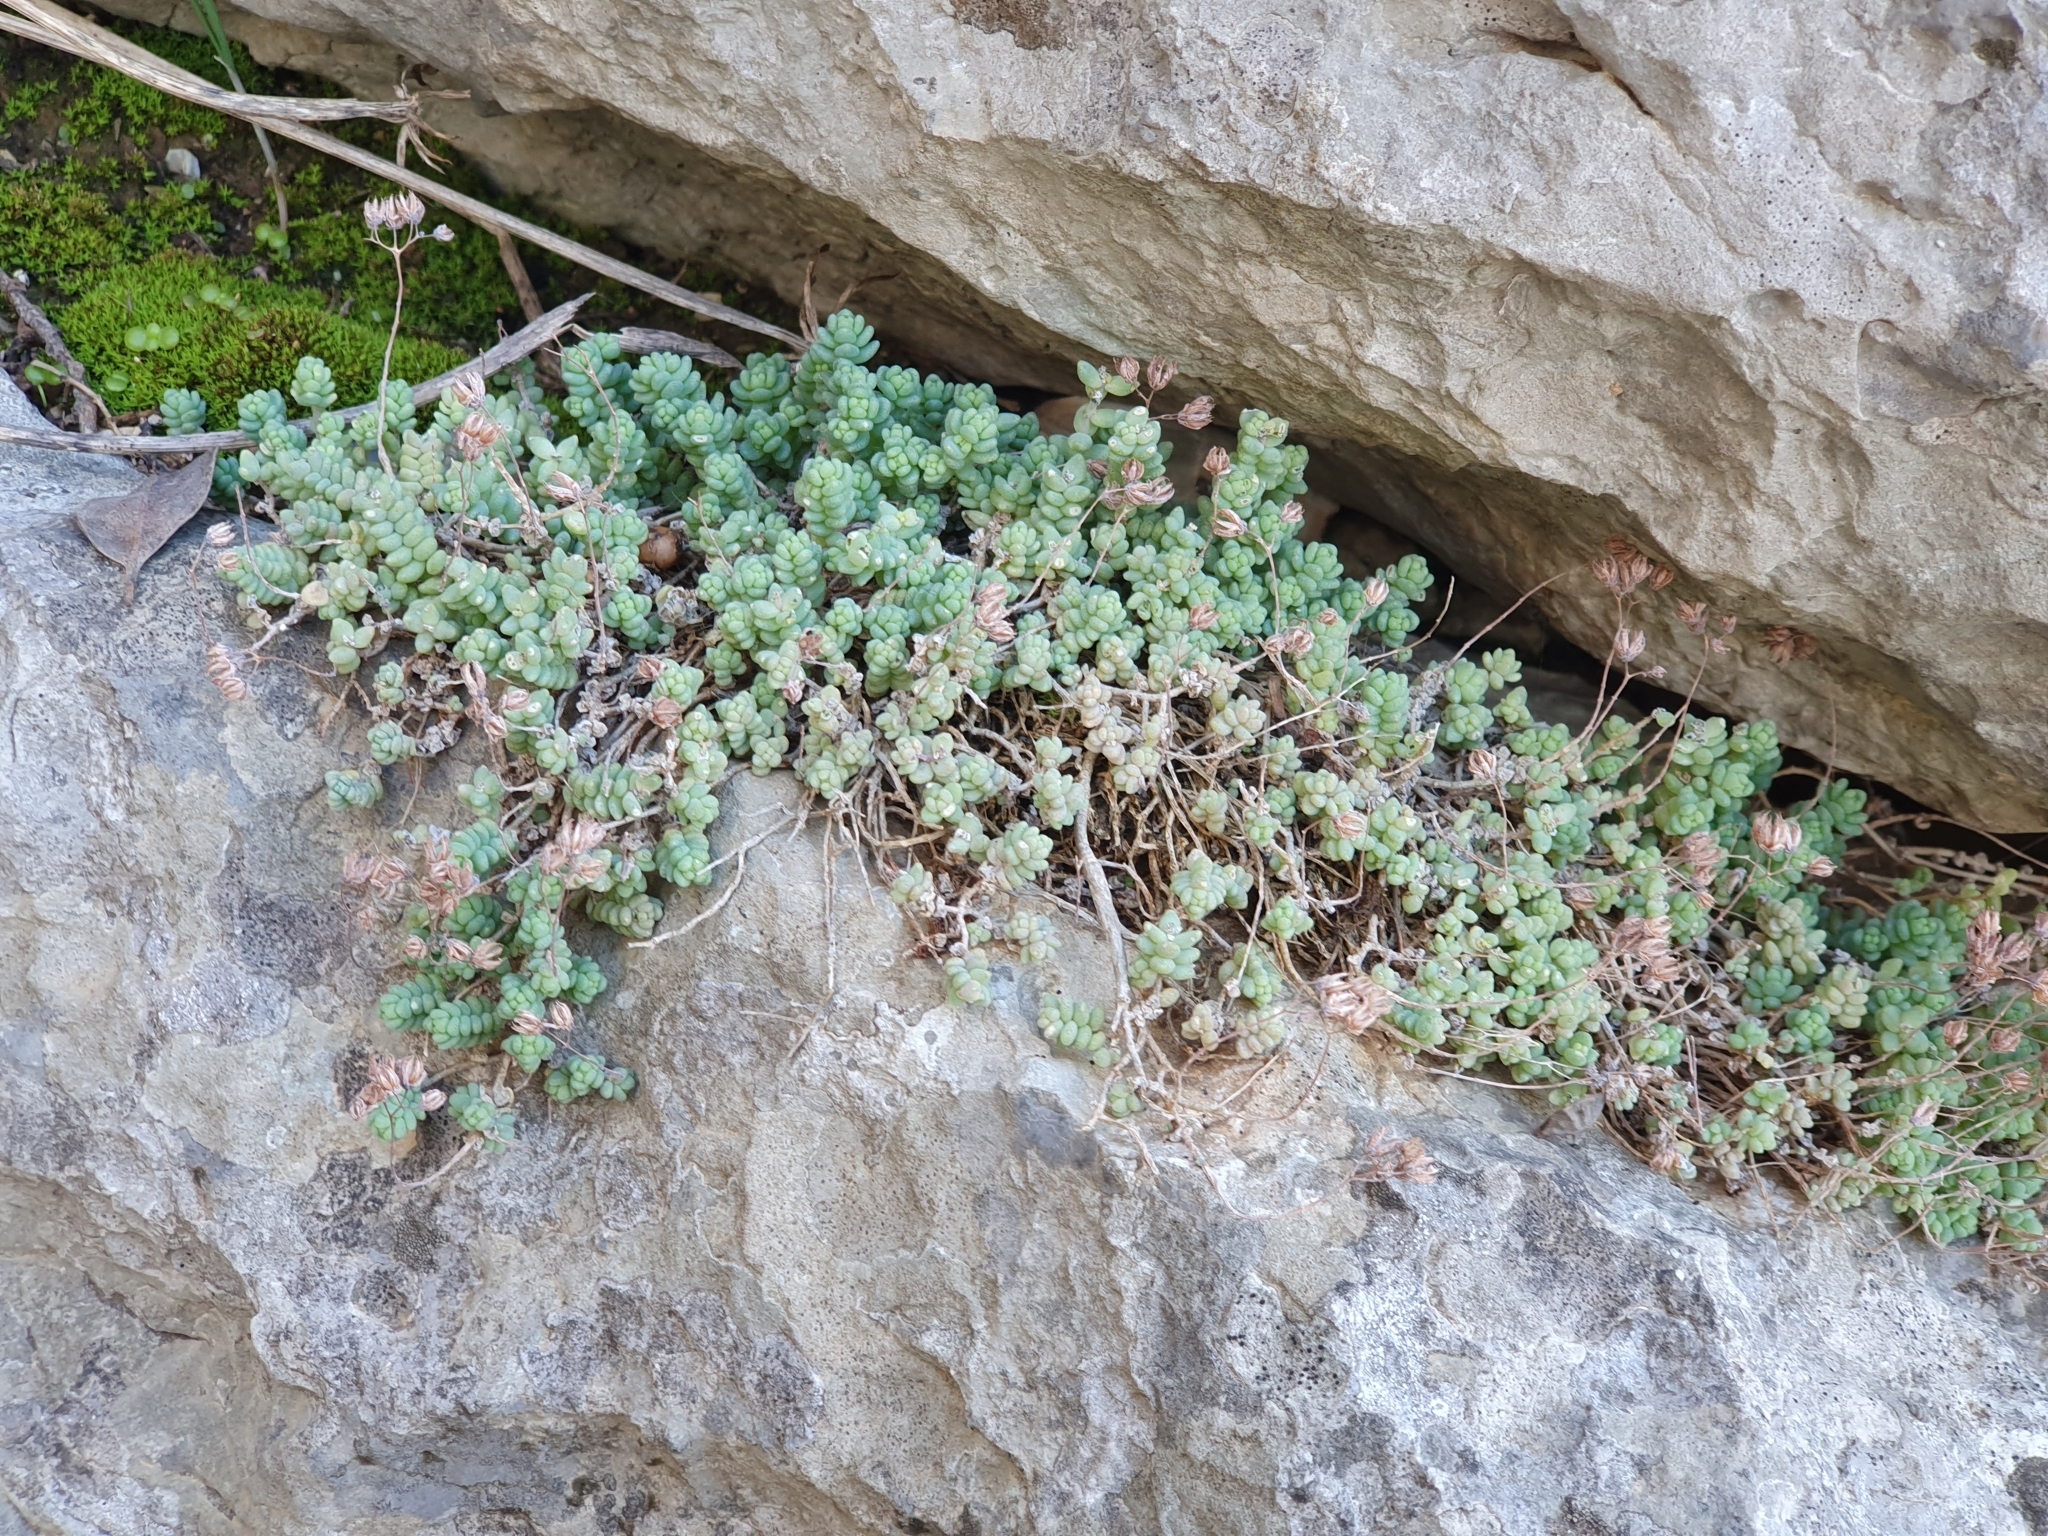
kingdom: Plantae
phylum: Tracheophyta
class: Magnoliopsida
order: Saxifragales
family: Crassulaceae
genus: Sedum
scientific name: Sedum dasyphyllum
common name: Thick-leaf stonecrop
